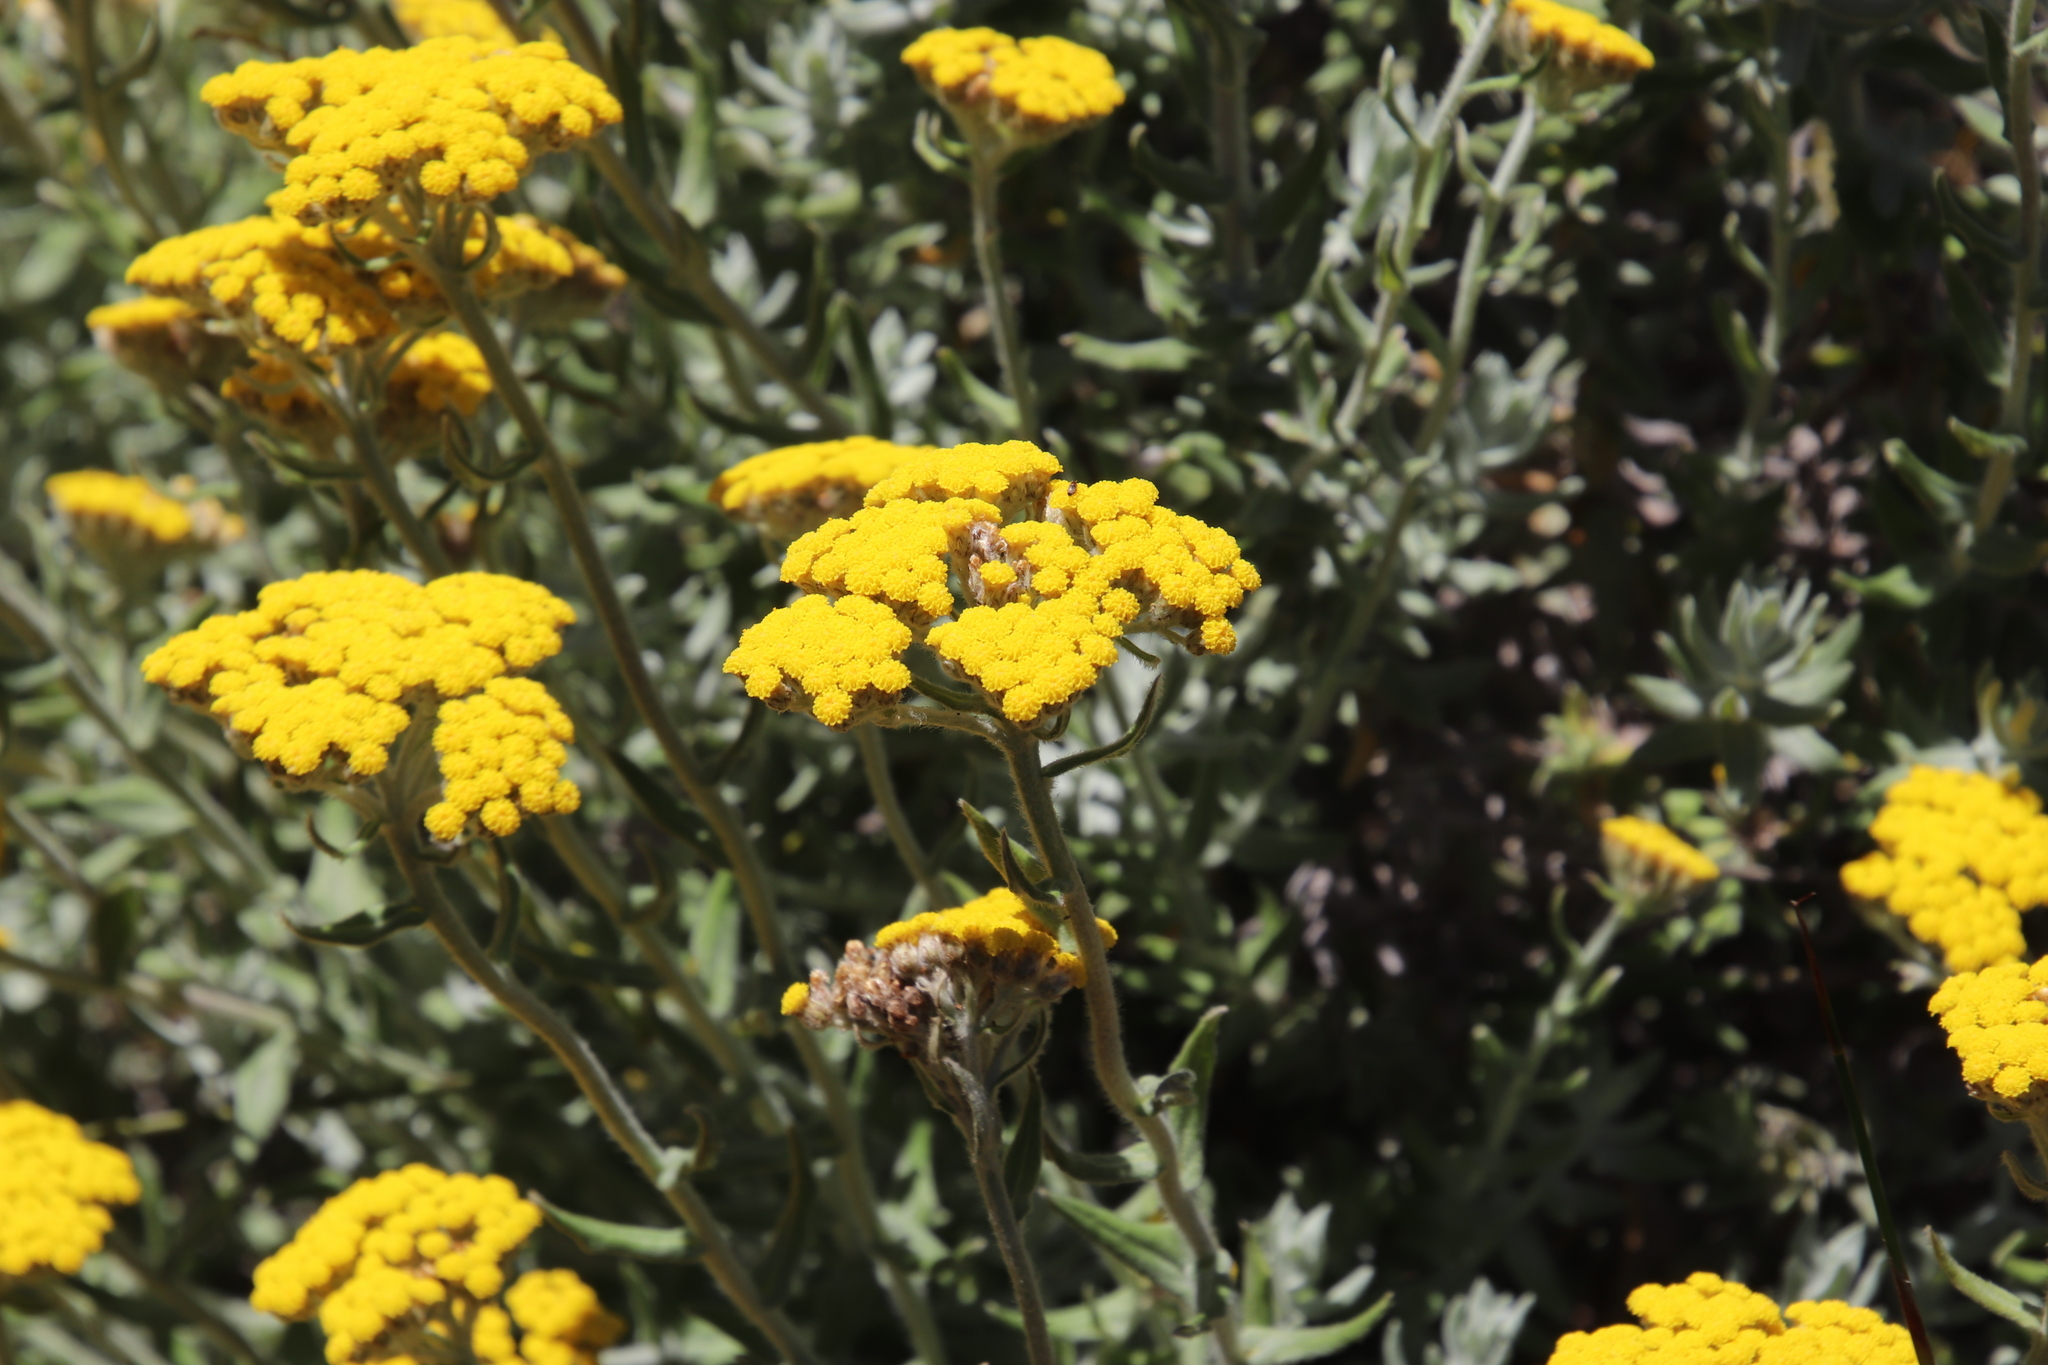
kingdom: Plantae
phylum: Tracheophyta
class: Magnoliopsida
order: Asterales
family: Asteraceae
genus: Helichrysum
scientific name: Helichrysum dasyanthum
